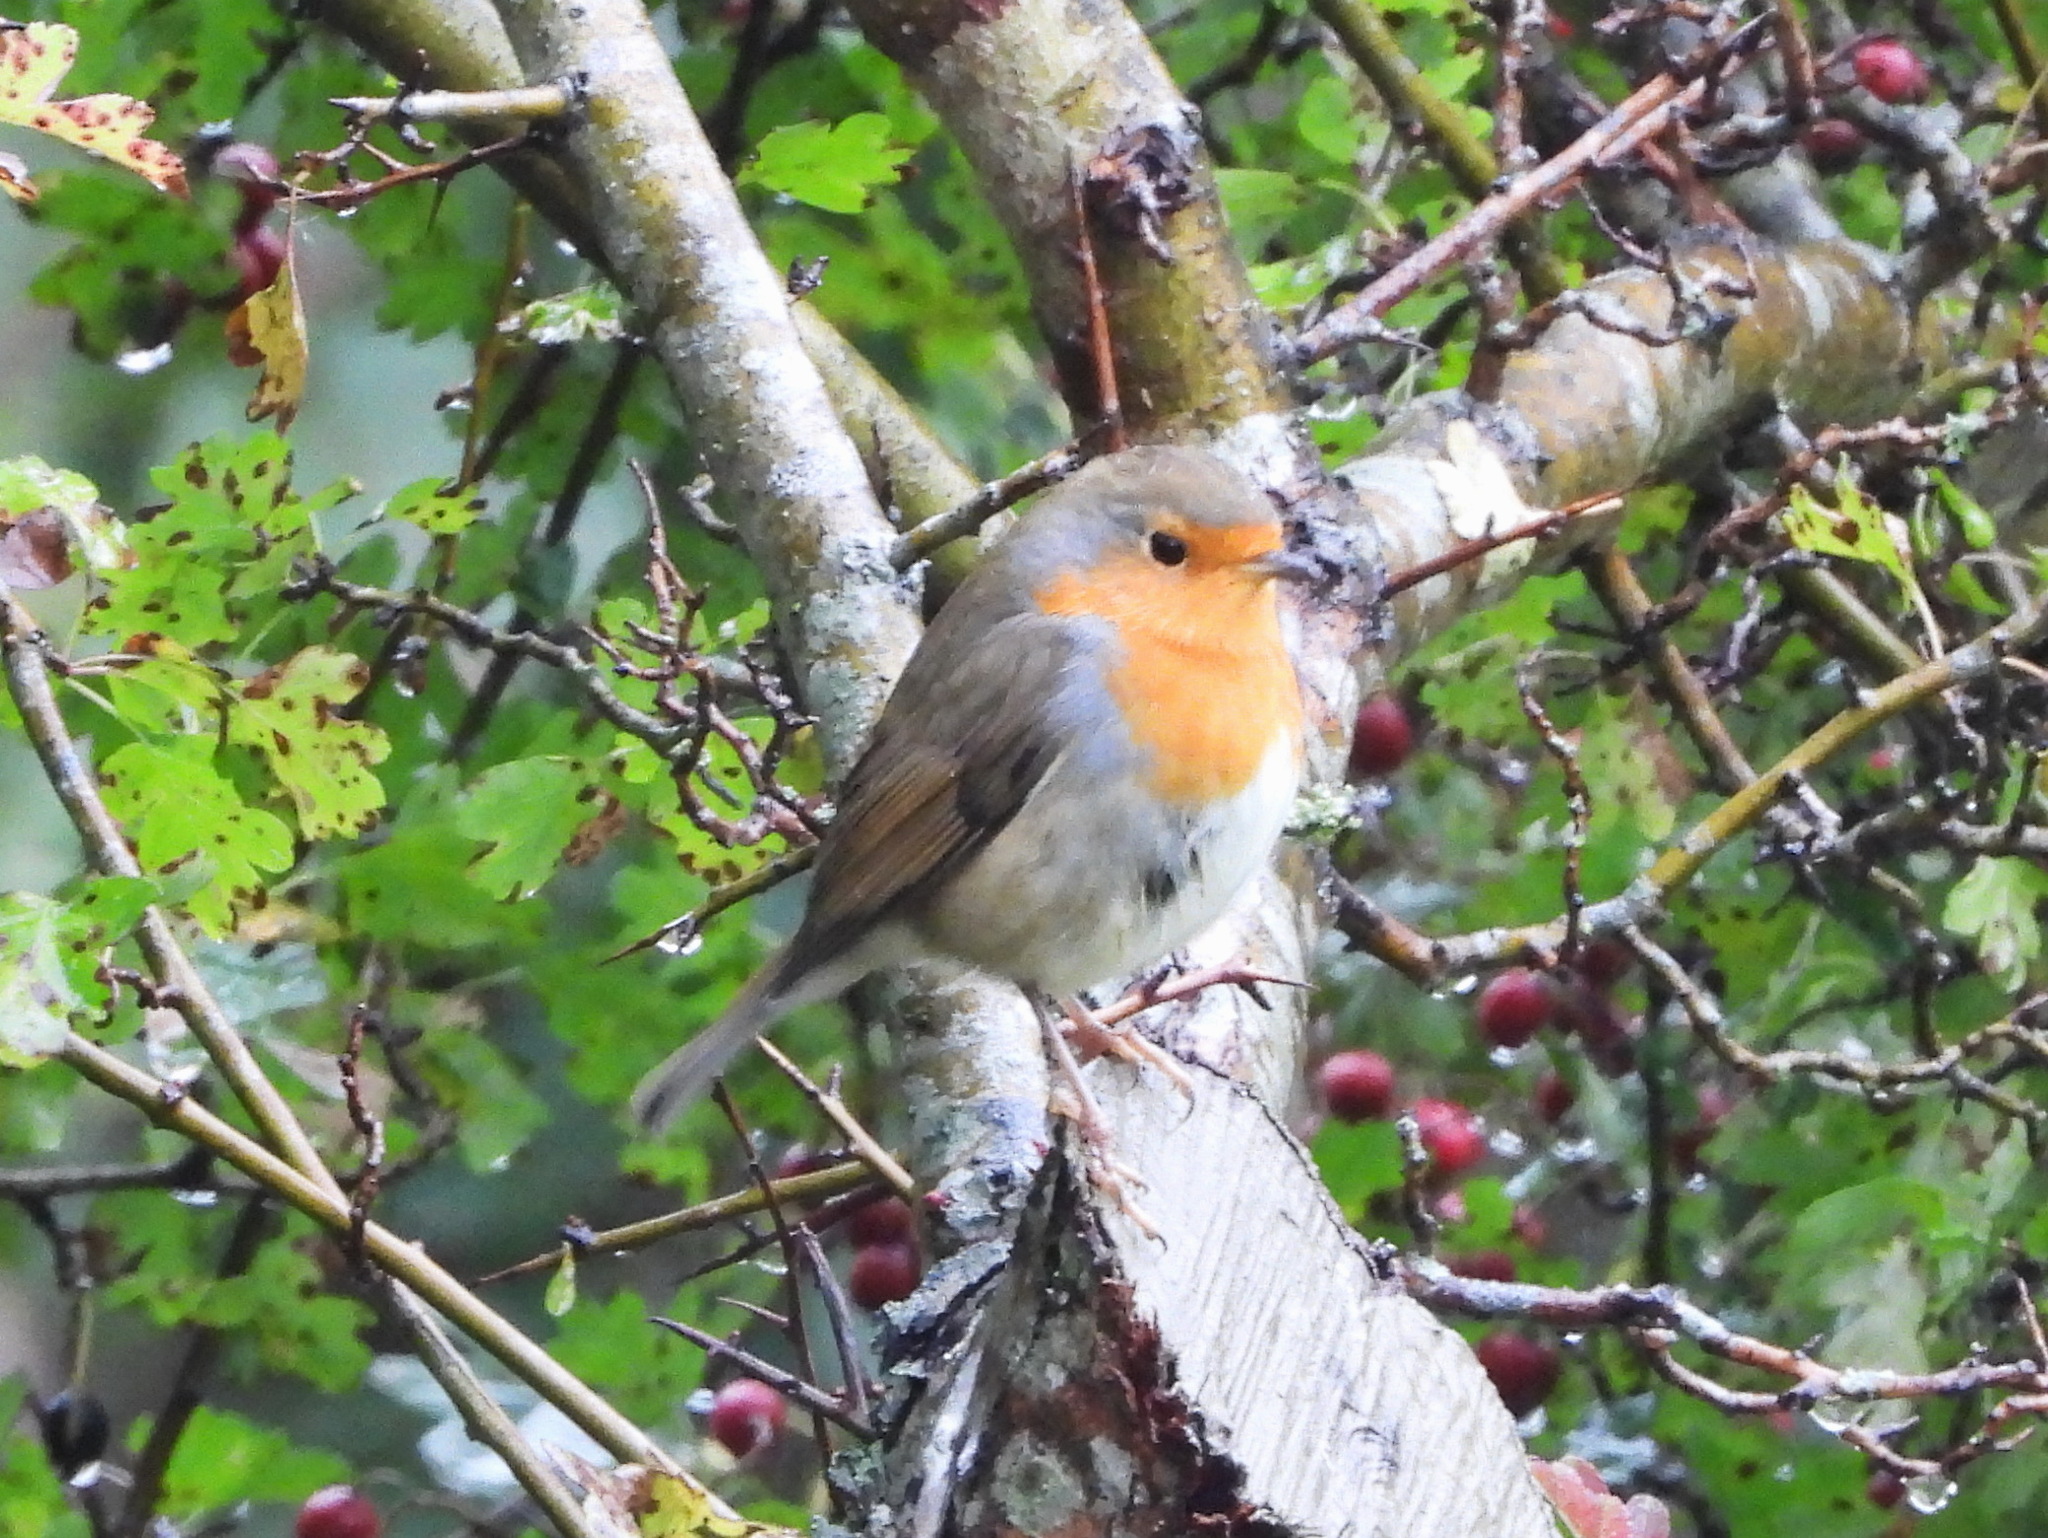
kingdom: Animalia
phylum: Chordata
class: Aves
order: Passeriformes
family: Muscicapidae
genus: Erithacus
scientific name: Erithacus rubecula
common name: European robin
